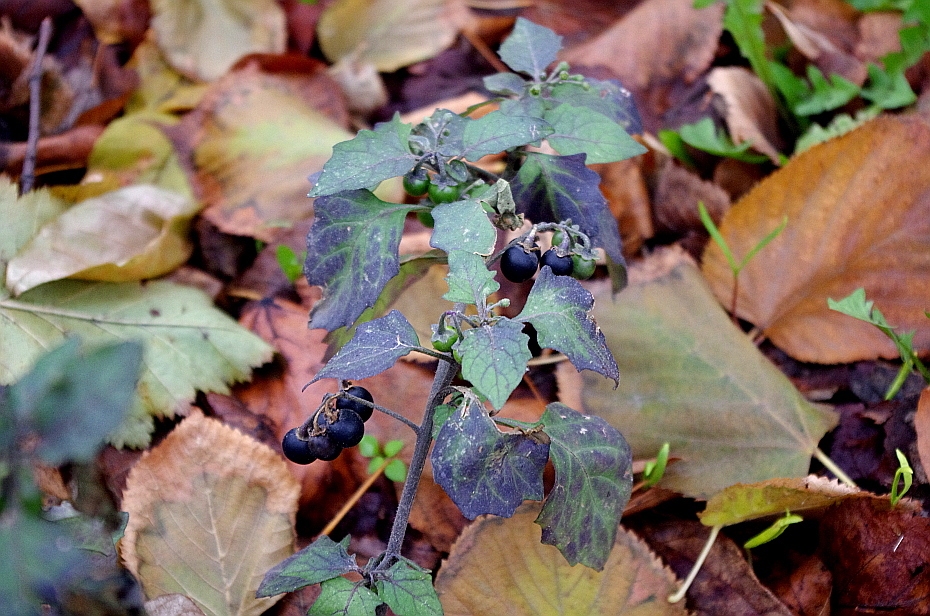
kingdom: Plantae
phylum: Tracheophyta
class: Magnoliopsida
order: Solanales
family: Solanaceae
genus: Solanum
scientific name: Solanum nigrum
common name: Black nightshade
